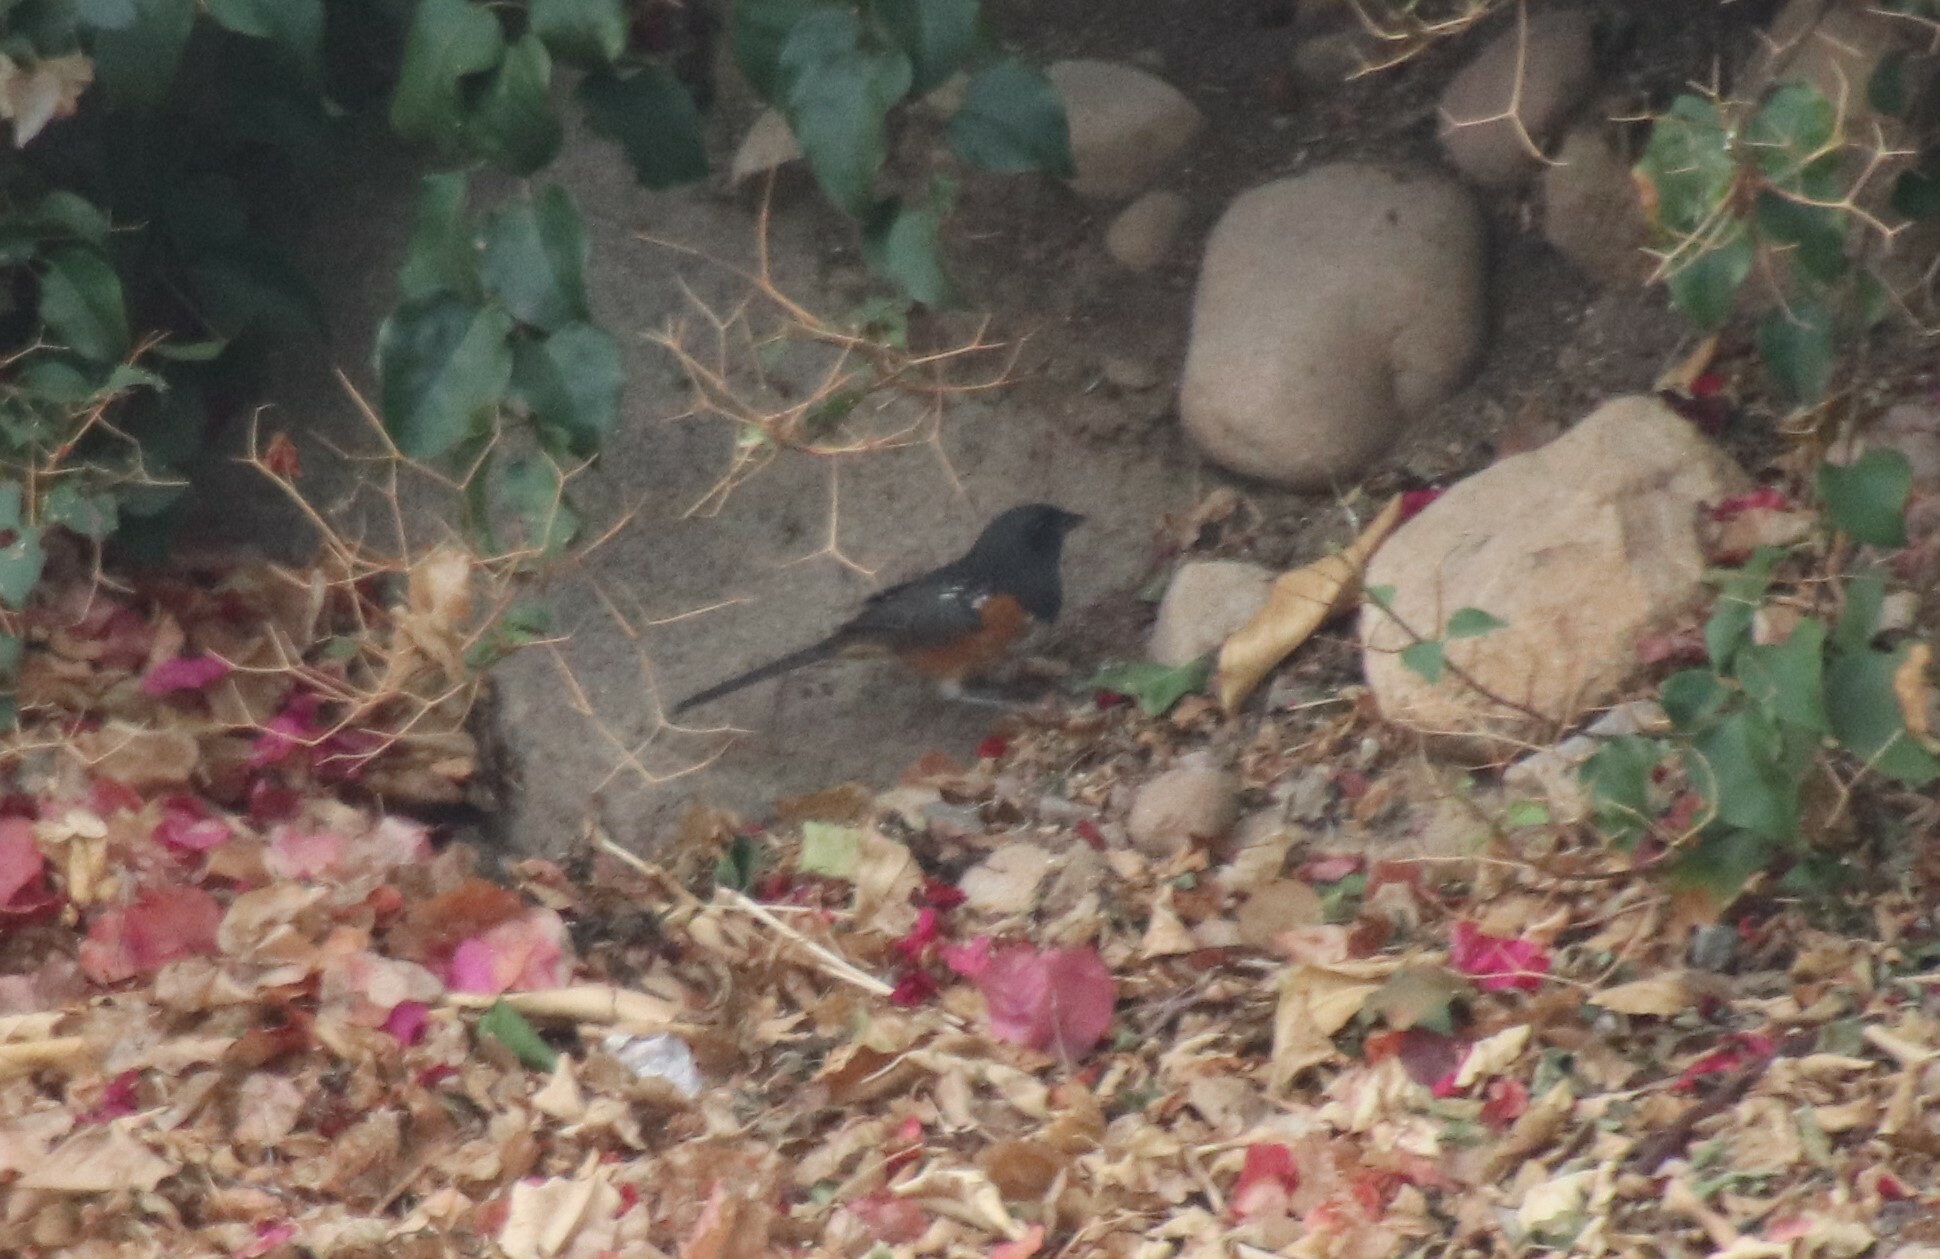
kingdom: Animalia
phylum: Chordata
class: Aves
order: Passeriformes
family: Passerellidae
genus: Pipilo
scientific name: Pipilo maculatus
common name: Spotted towhee
